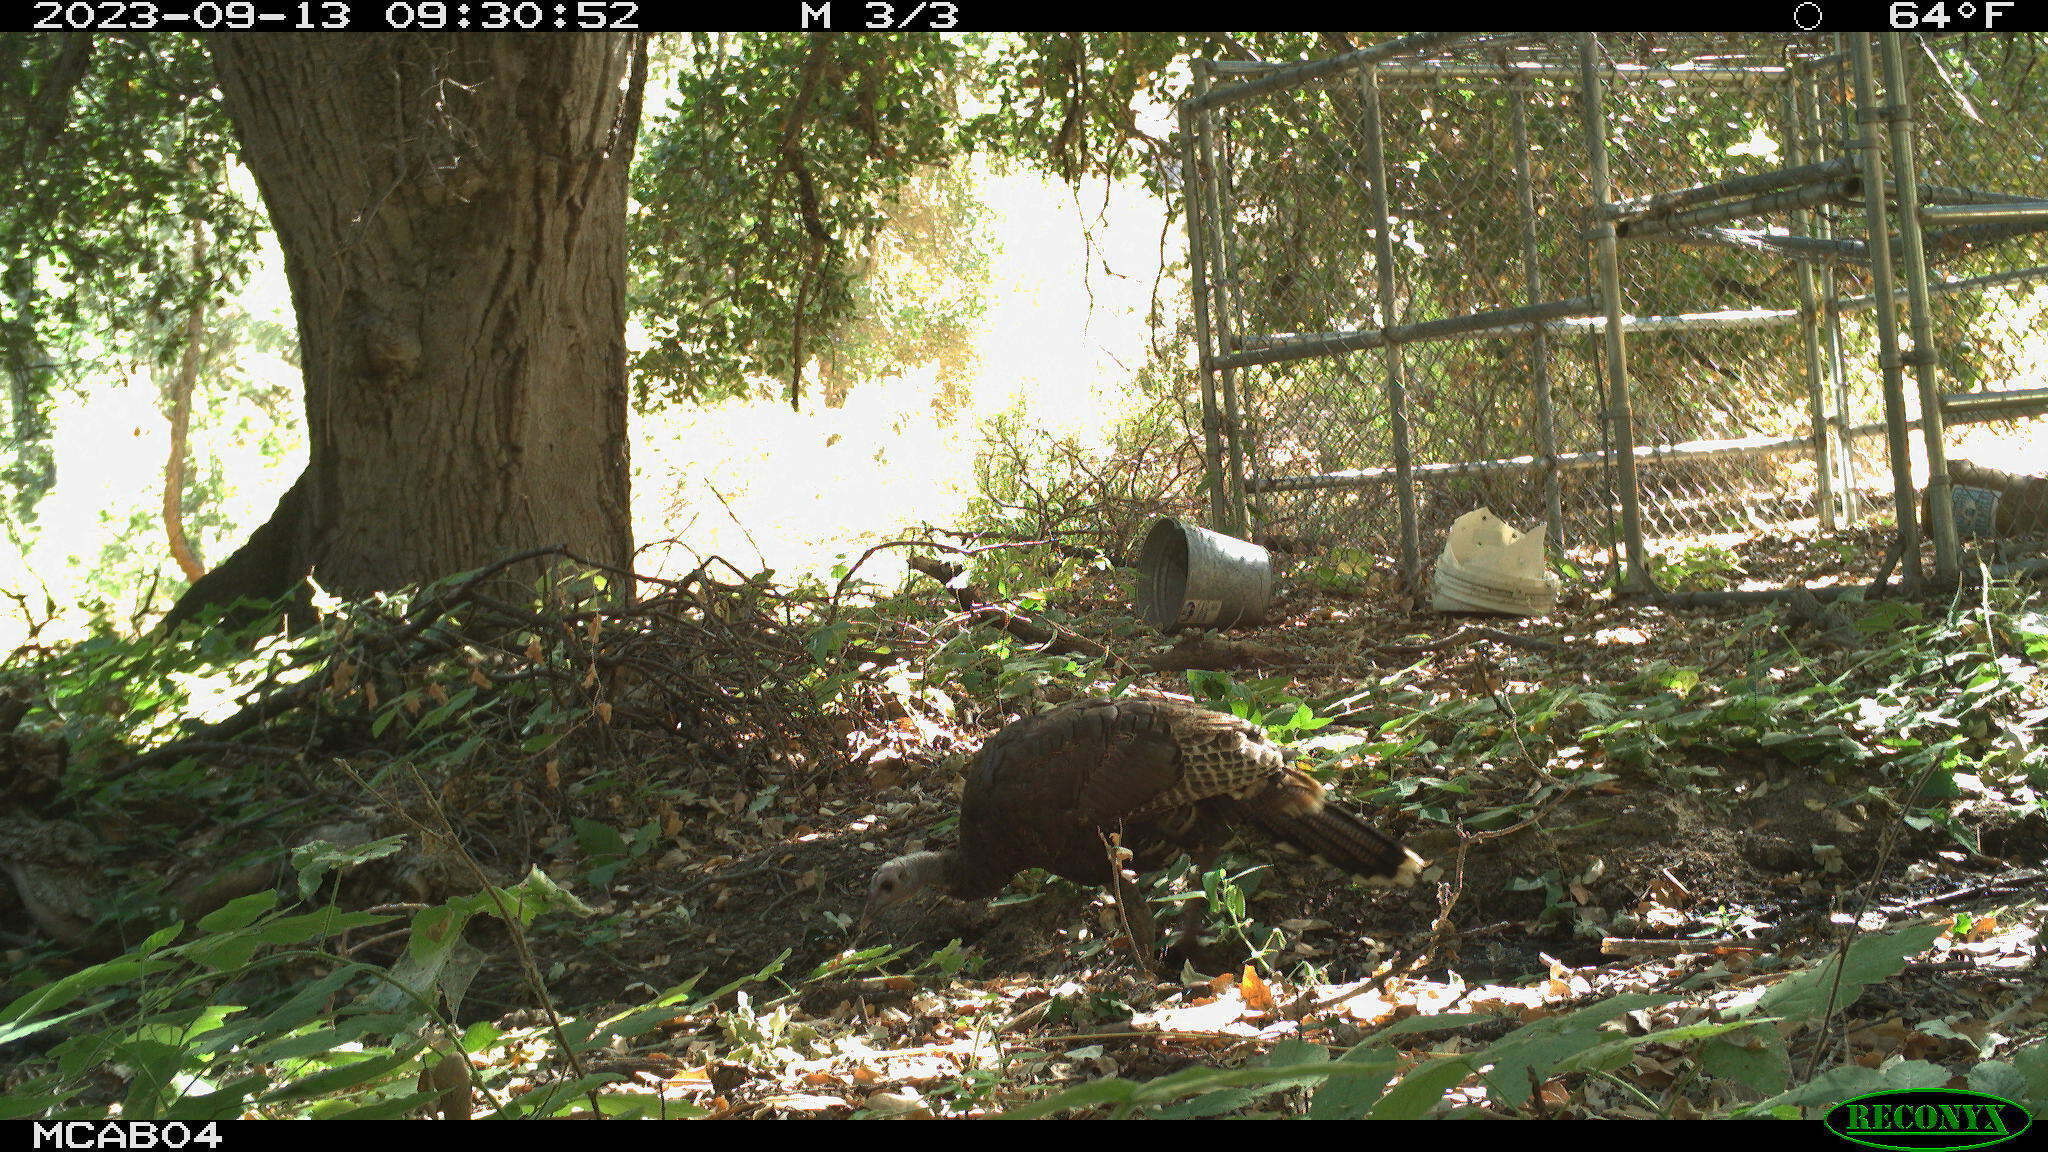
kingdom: Animalia
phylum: Chordata
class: Aves
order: Galliformes
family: Phasianidae
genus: Meleagris
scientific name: Meleagris gallopavo
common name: Wild turkey
